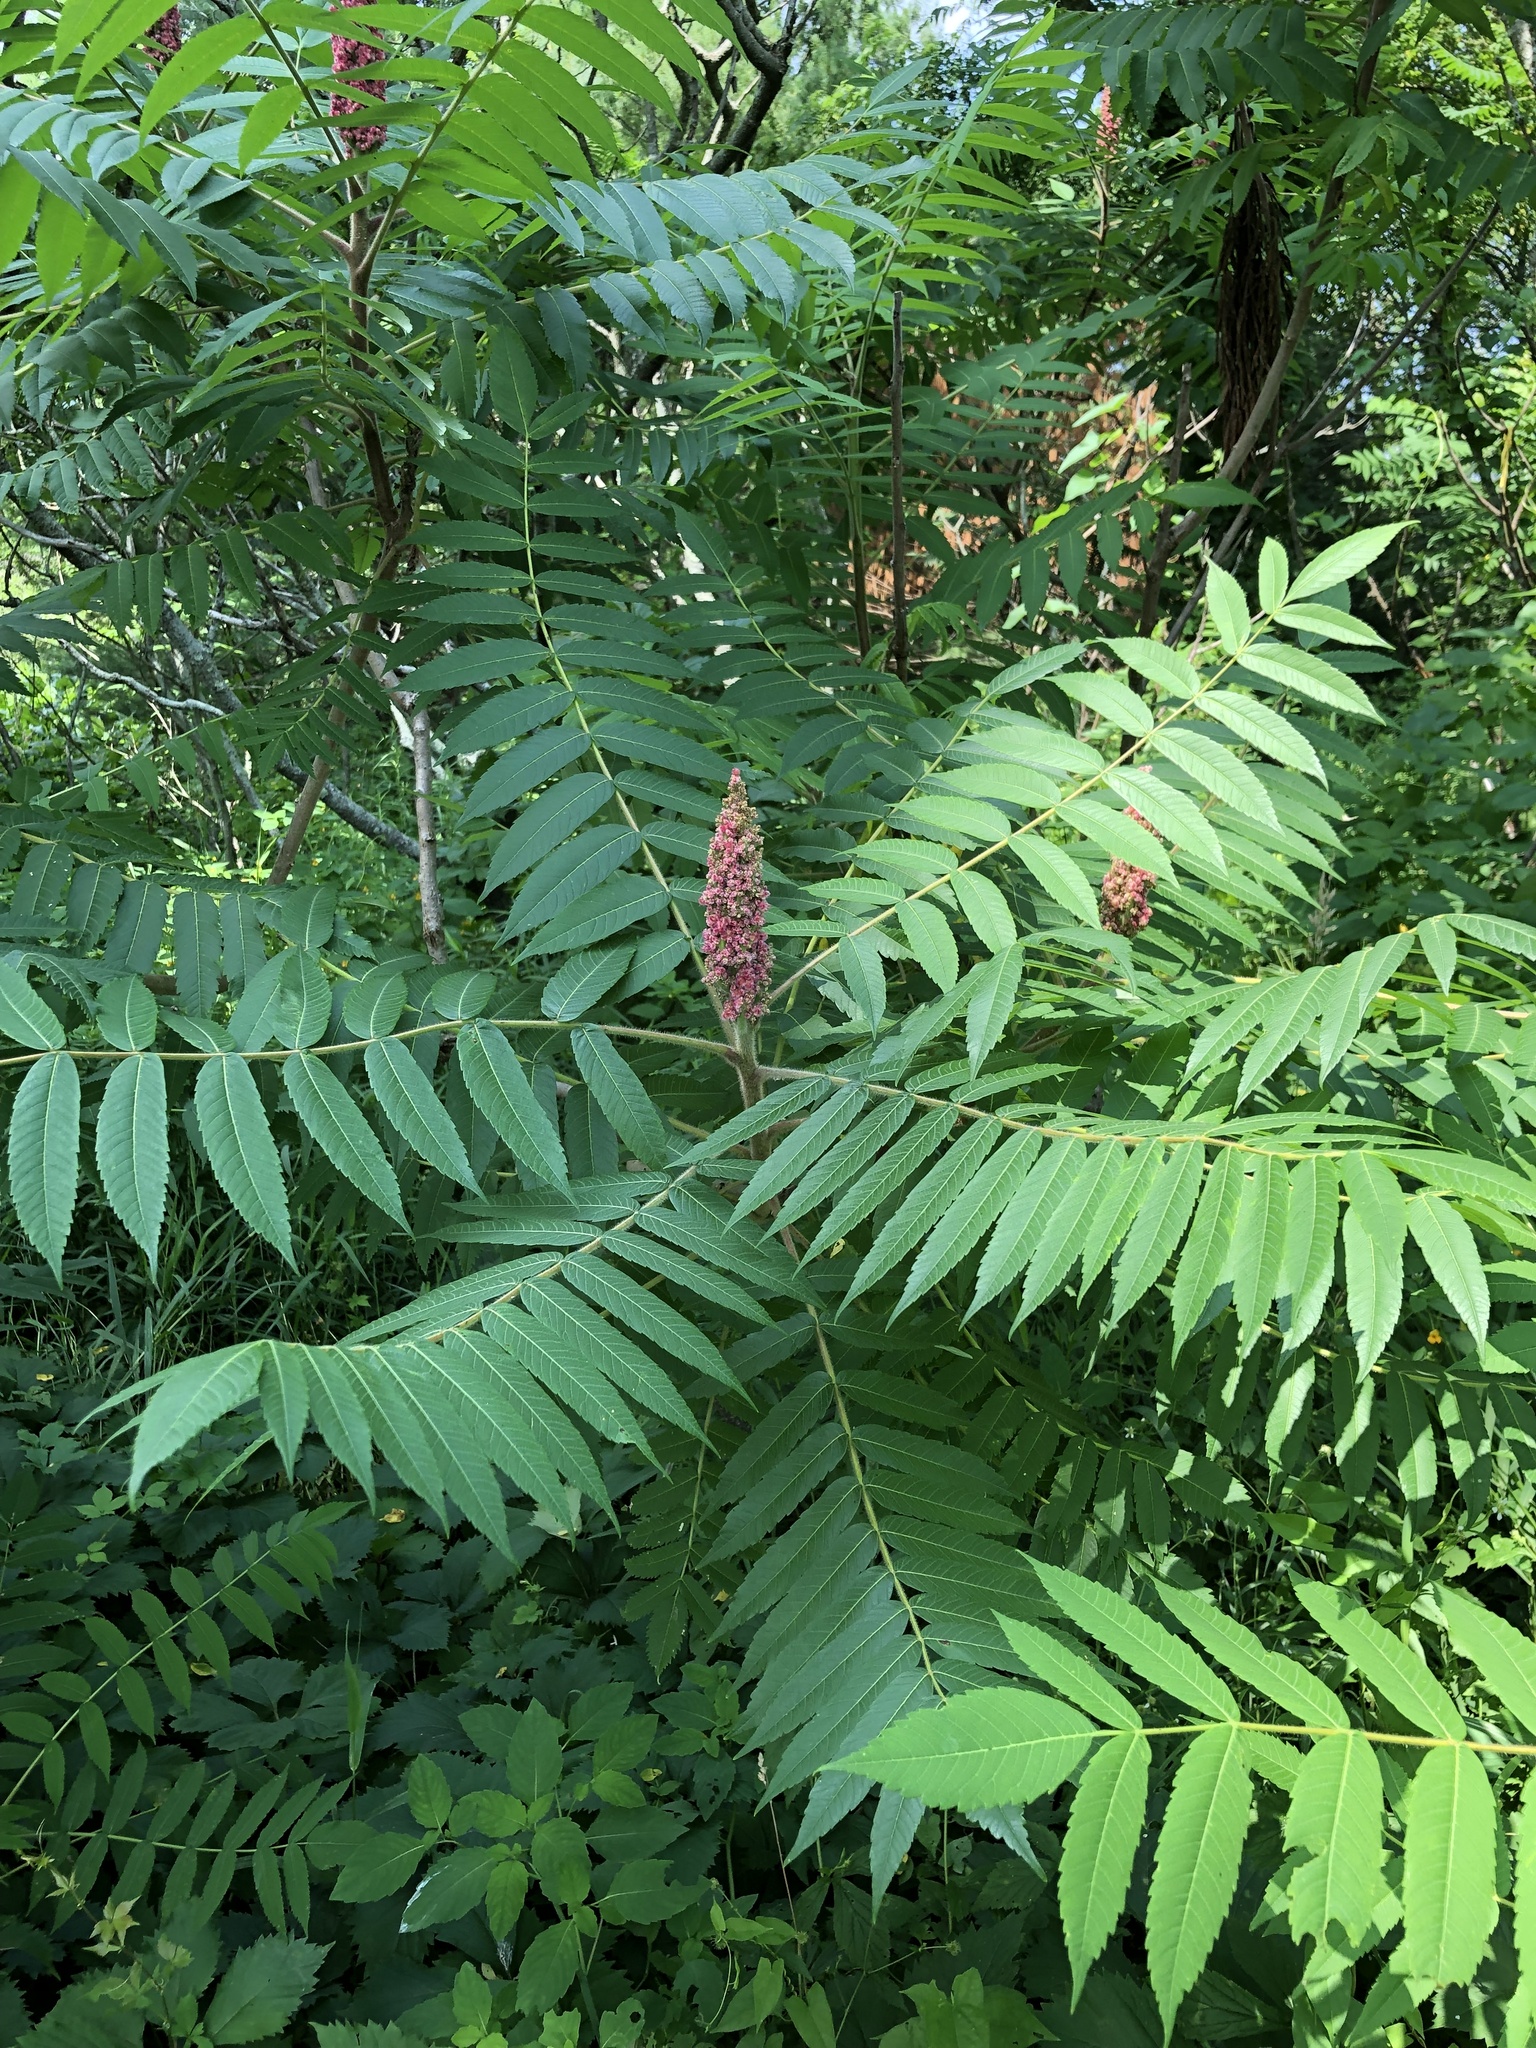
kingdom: Plantae
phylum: Tracheophyta
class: Magnoliopsida
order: Sapindales
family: Anacardiaceae
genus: Rhus
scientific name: Rhus typhina
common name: Staghorn sumac
